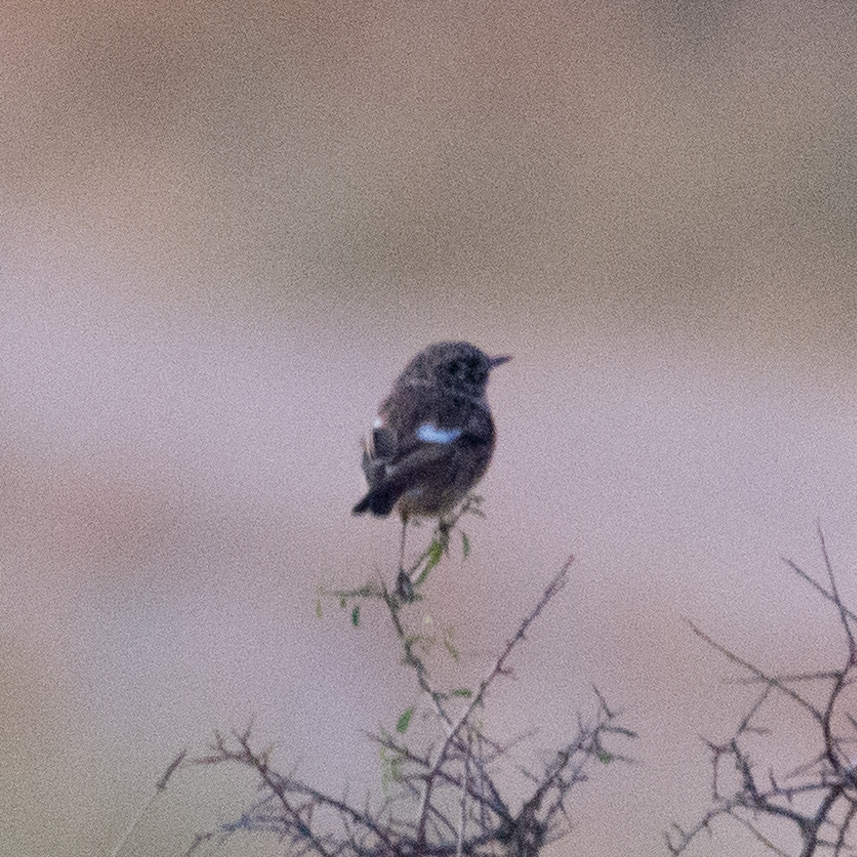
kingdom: Animalia
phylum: Chordata
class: Aves
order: Passeriformes
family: Muscicapidae
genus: Saxicola
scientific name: Saxicola rubicola
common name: European stonechat
